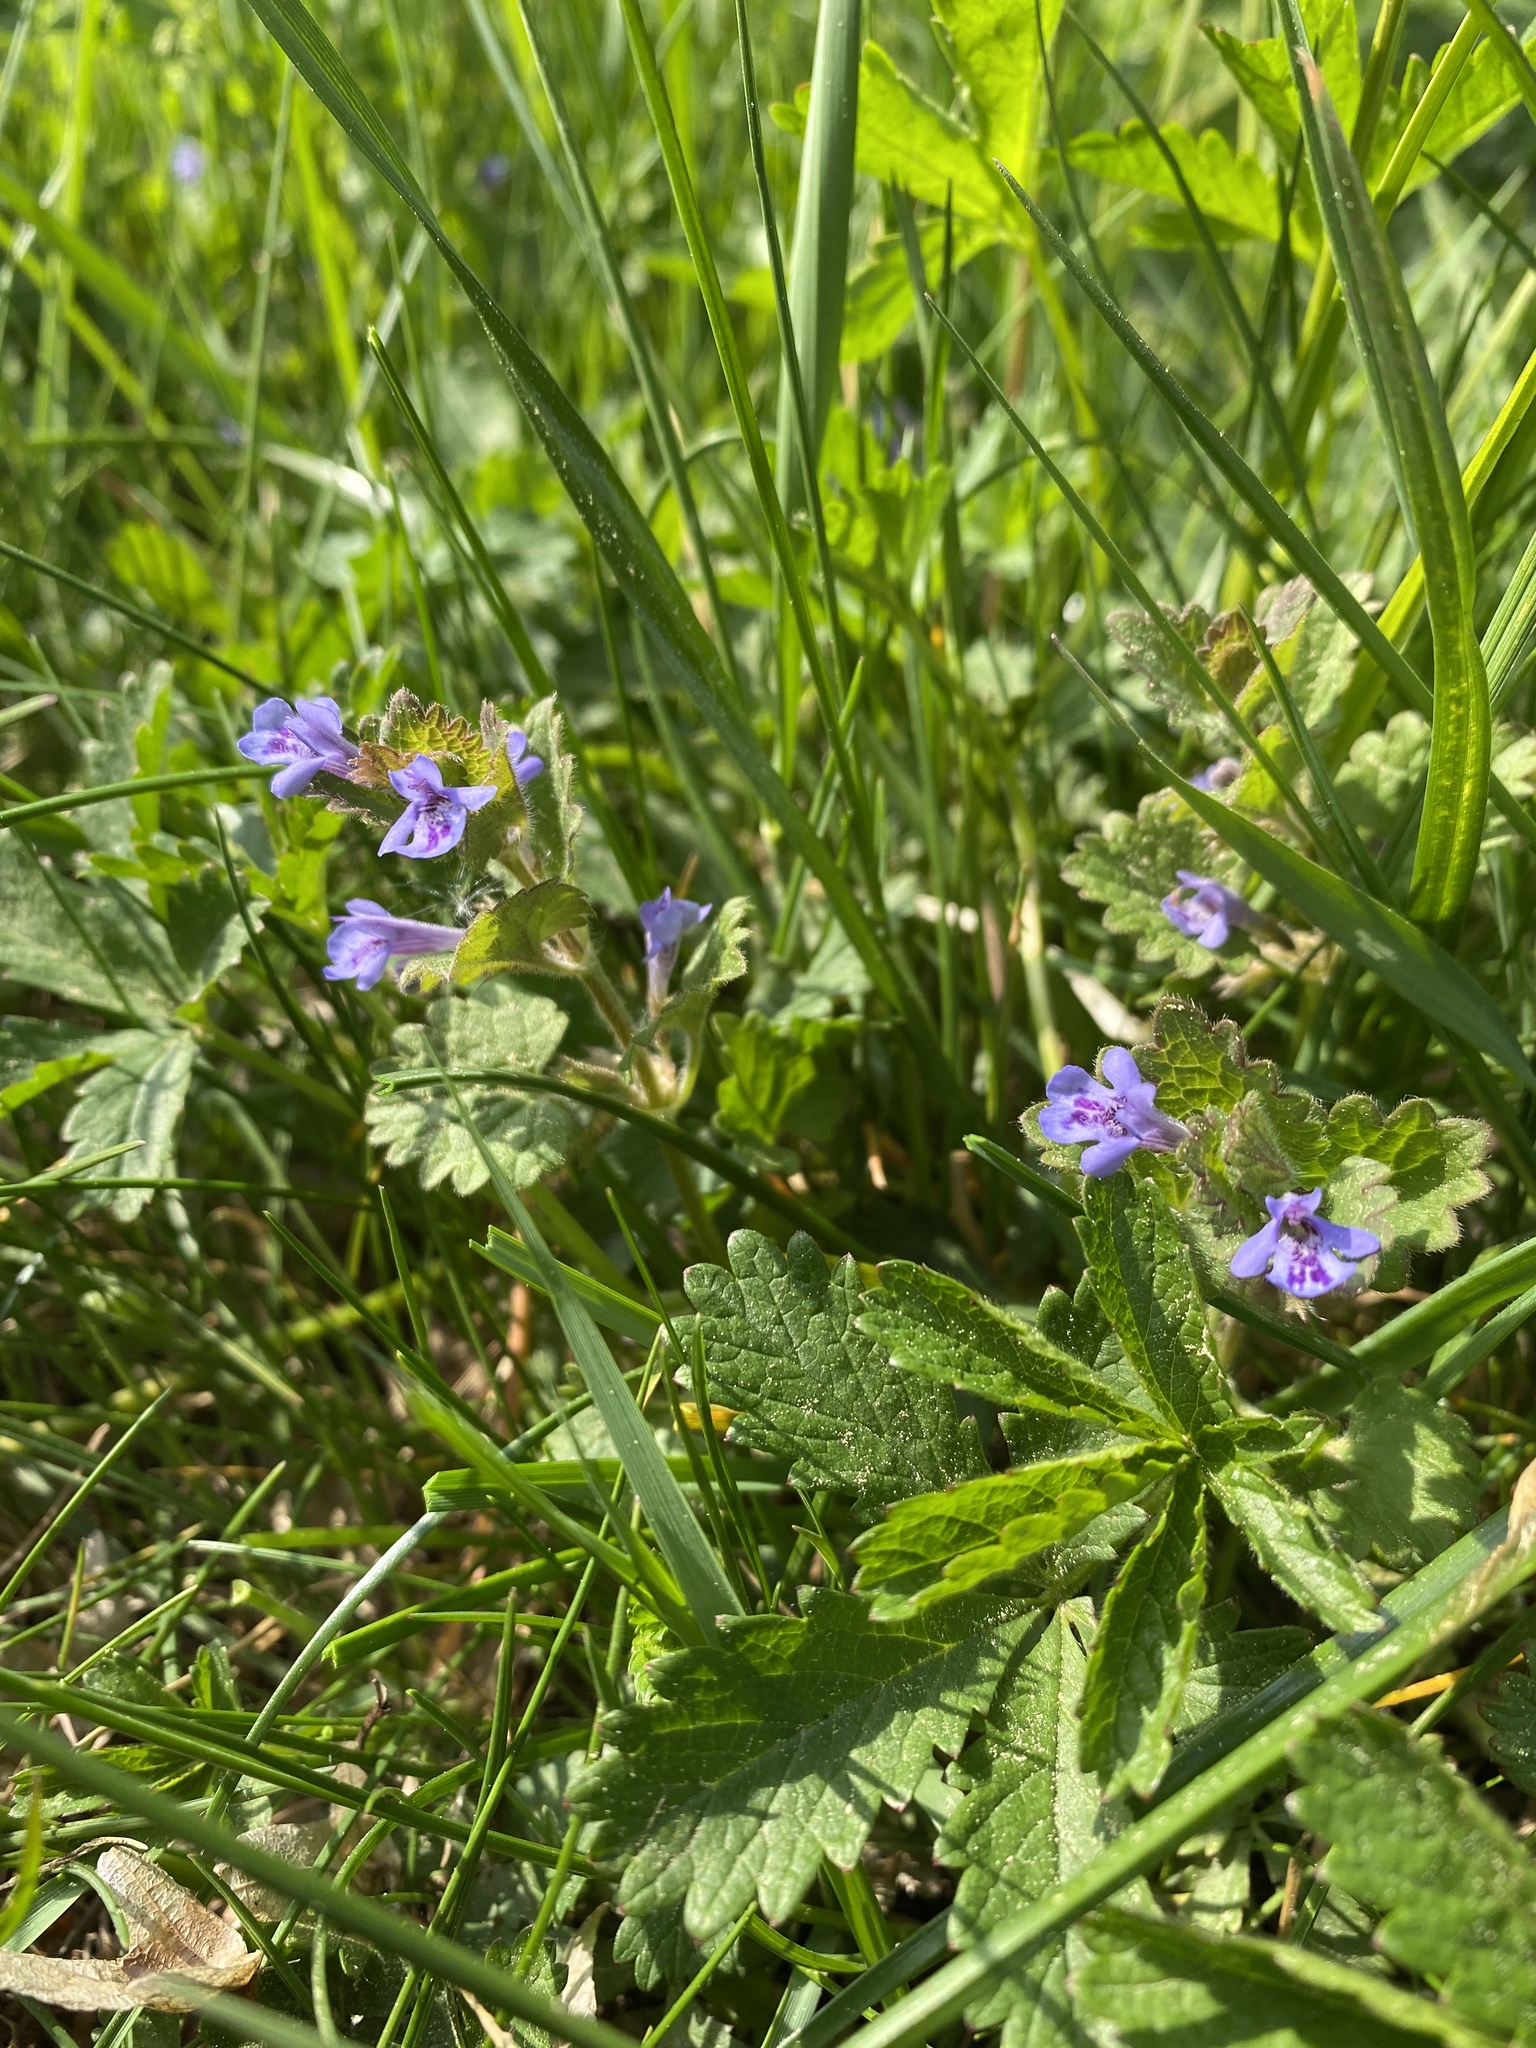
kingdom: Plantae
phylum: Tracheophyta
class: Magnoliopsida
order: Lamiales
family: Lamiaceae
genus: Glechoma
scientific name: Glechoma hederacea
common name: Ground ivy
